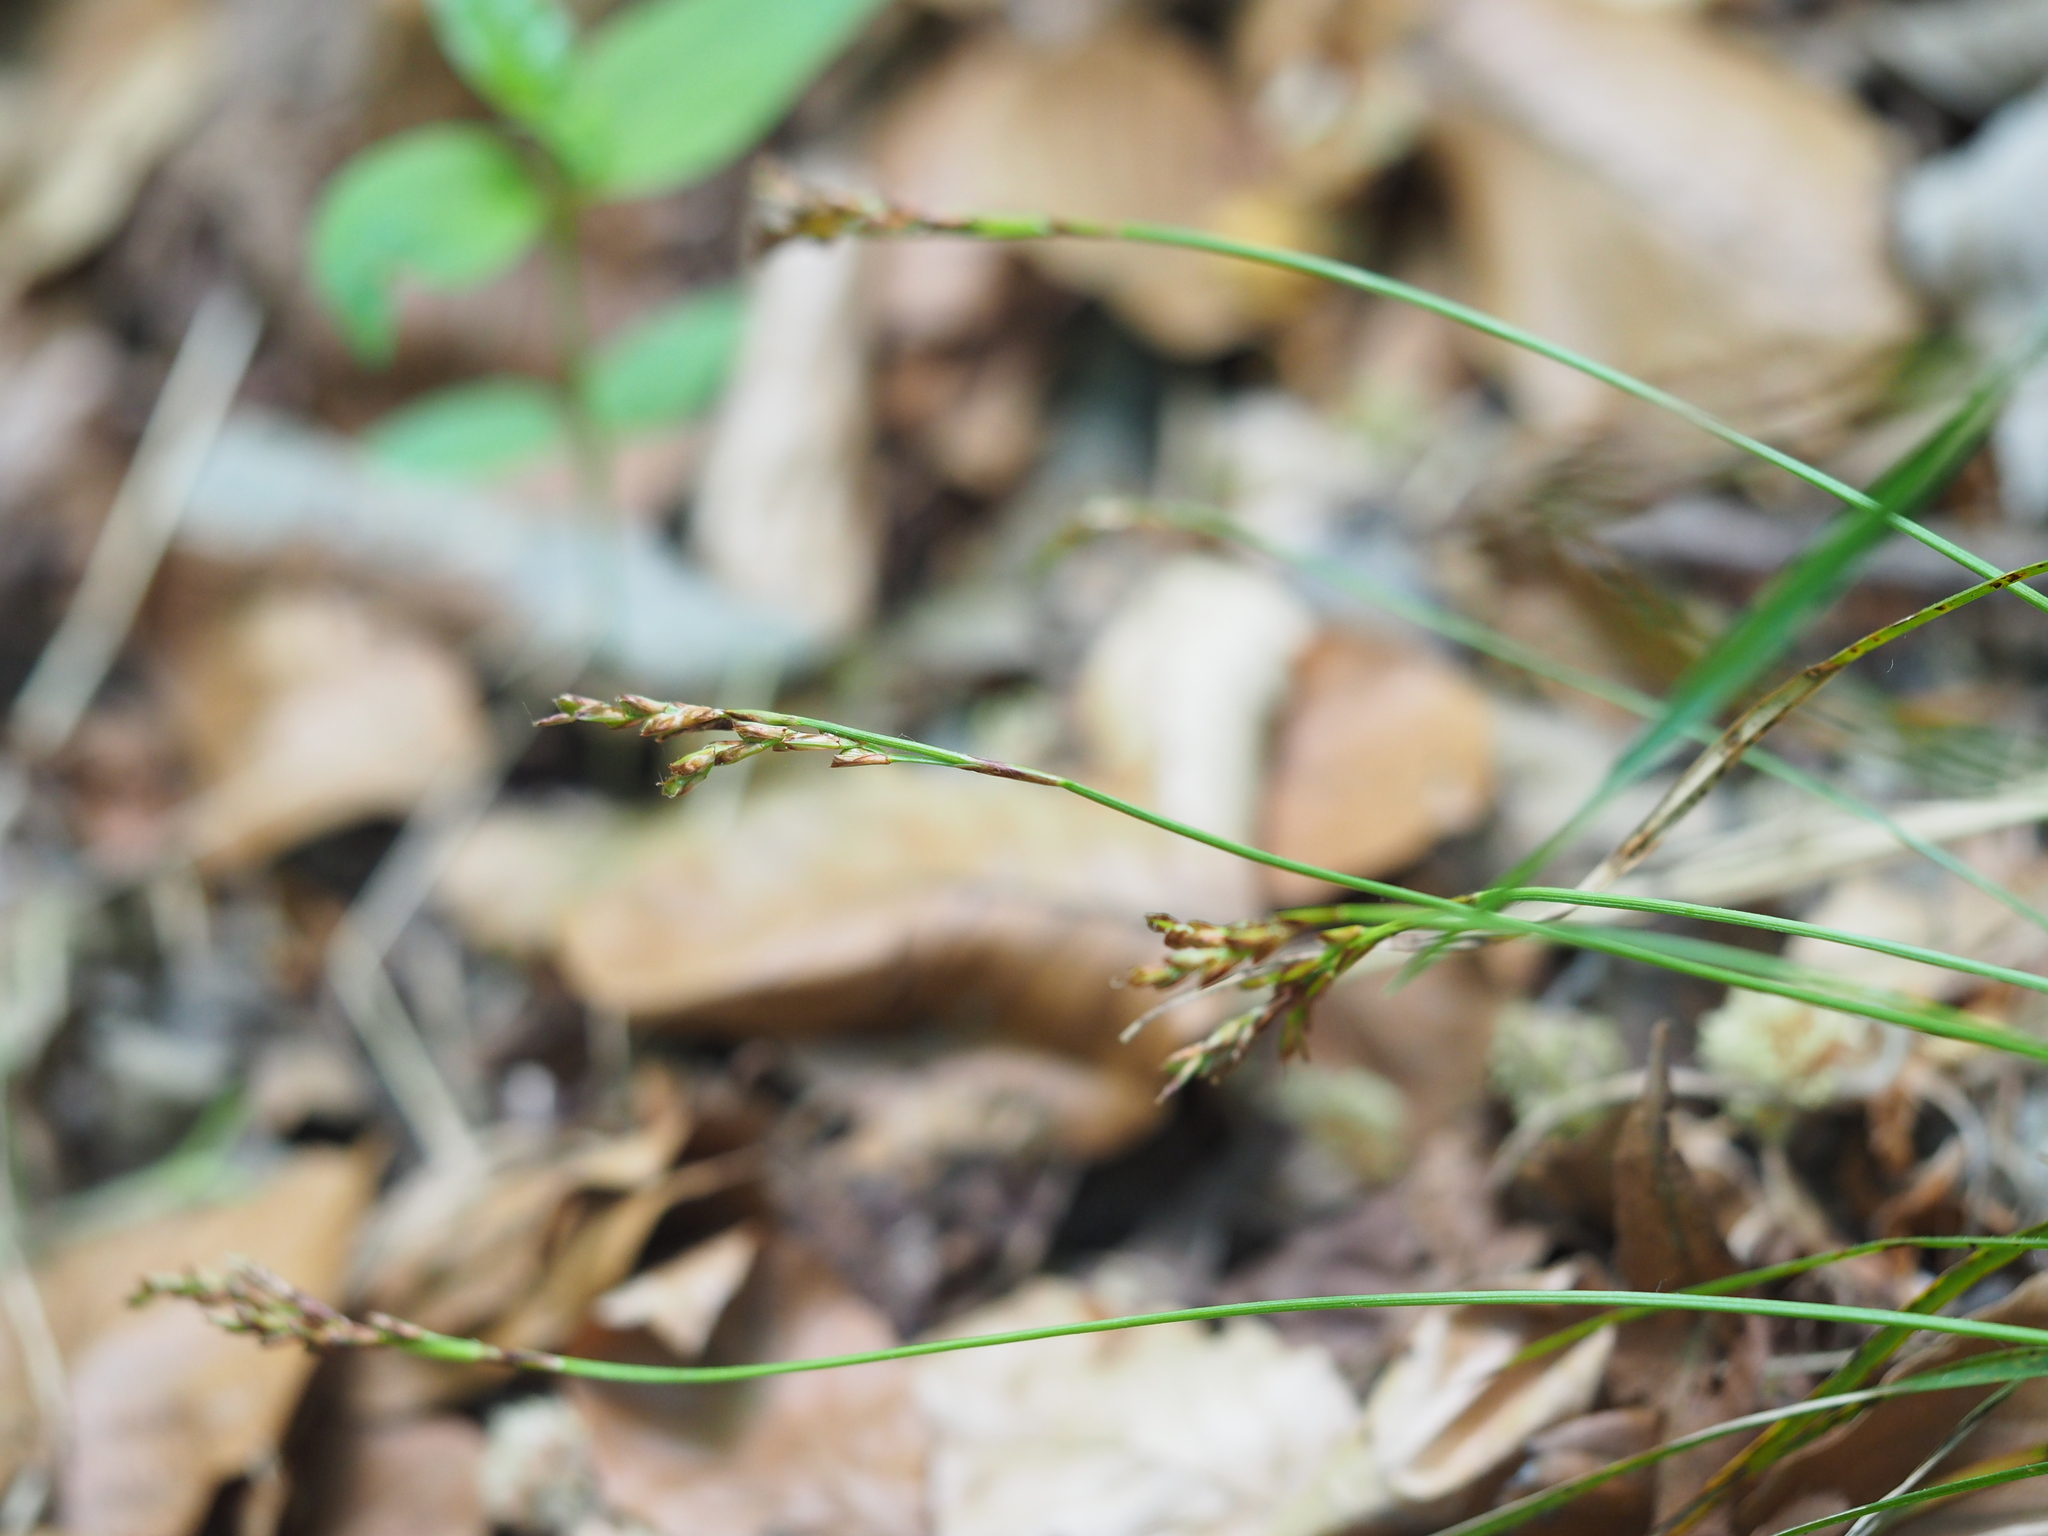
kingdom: Plantae
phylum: Tracheophyta
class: Liliopsida
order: Poales
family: Cyperaceae
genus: Carex
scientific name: Carex digitata
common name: Fingered sedge
